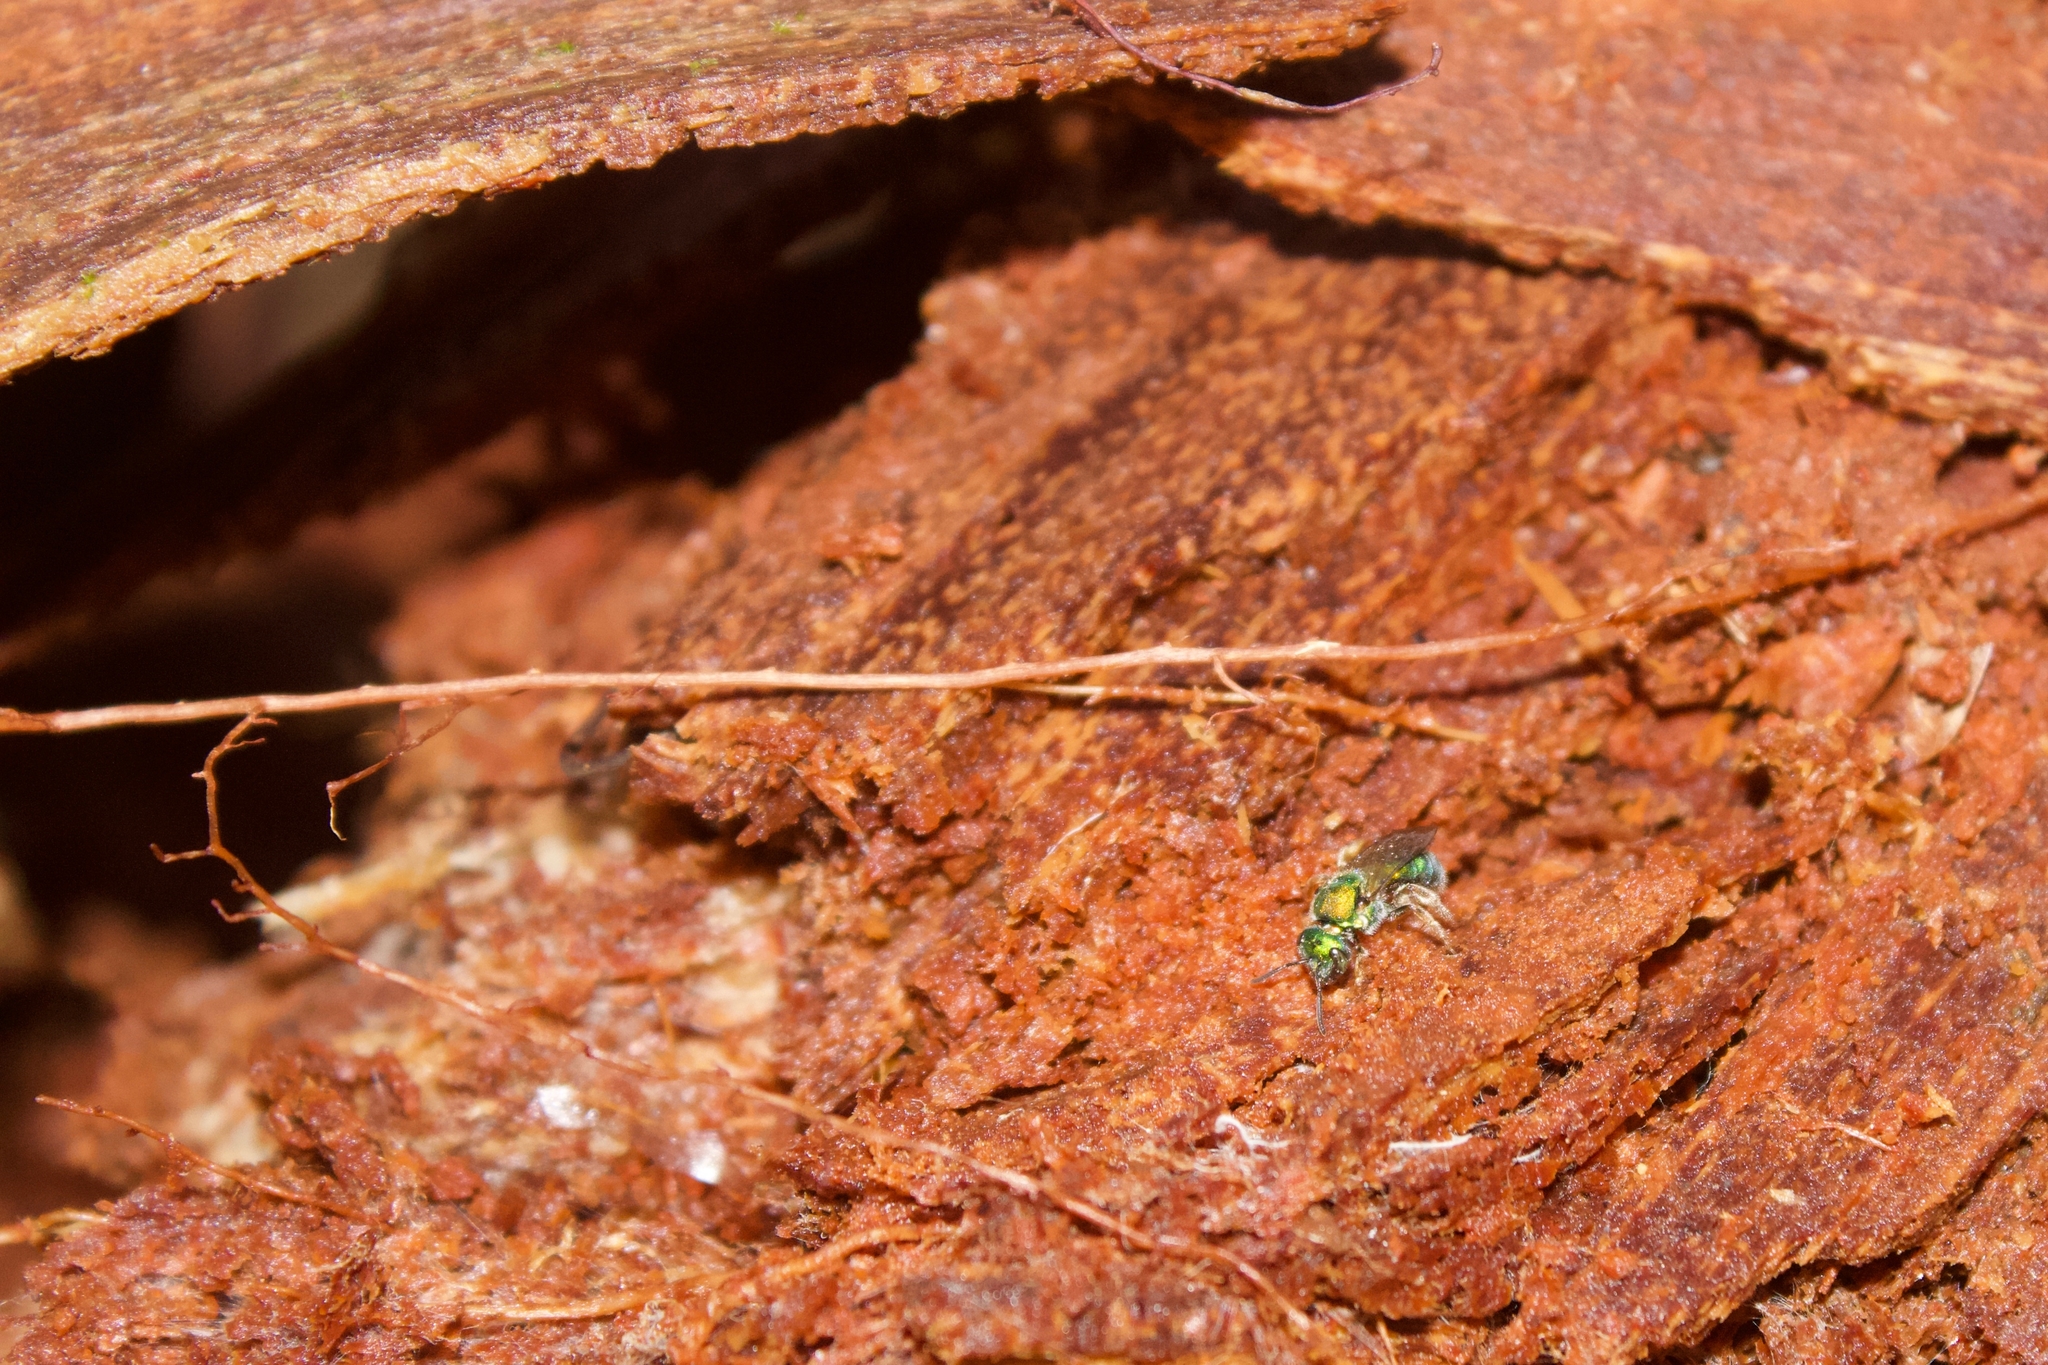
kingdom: Animalia
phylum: Arthropoda
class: Insecta
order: Hymenoptera
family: Halictidae
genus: Augochlora
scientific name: Augochlora pura
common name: Pure green sweat bee
